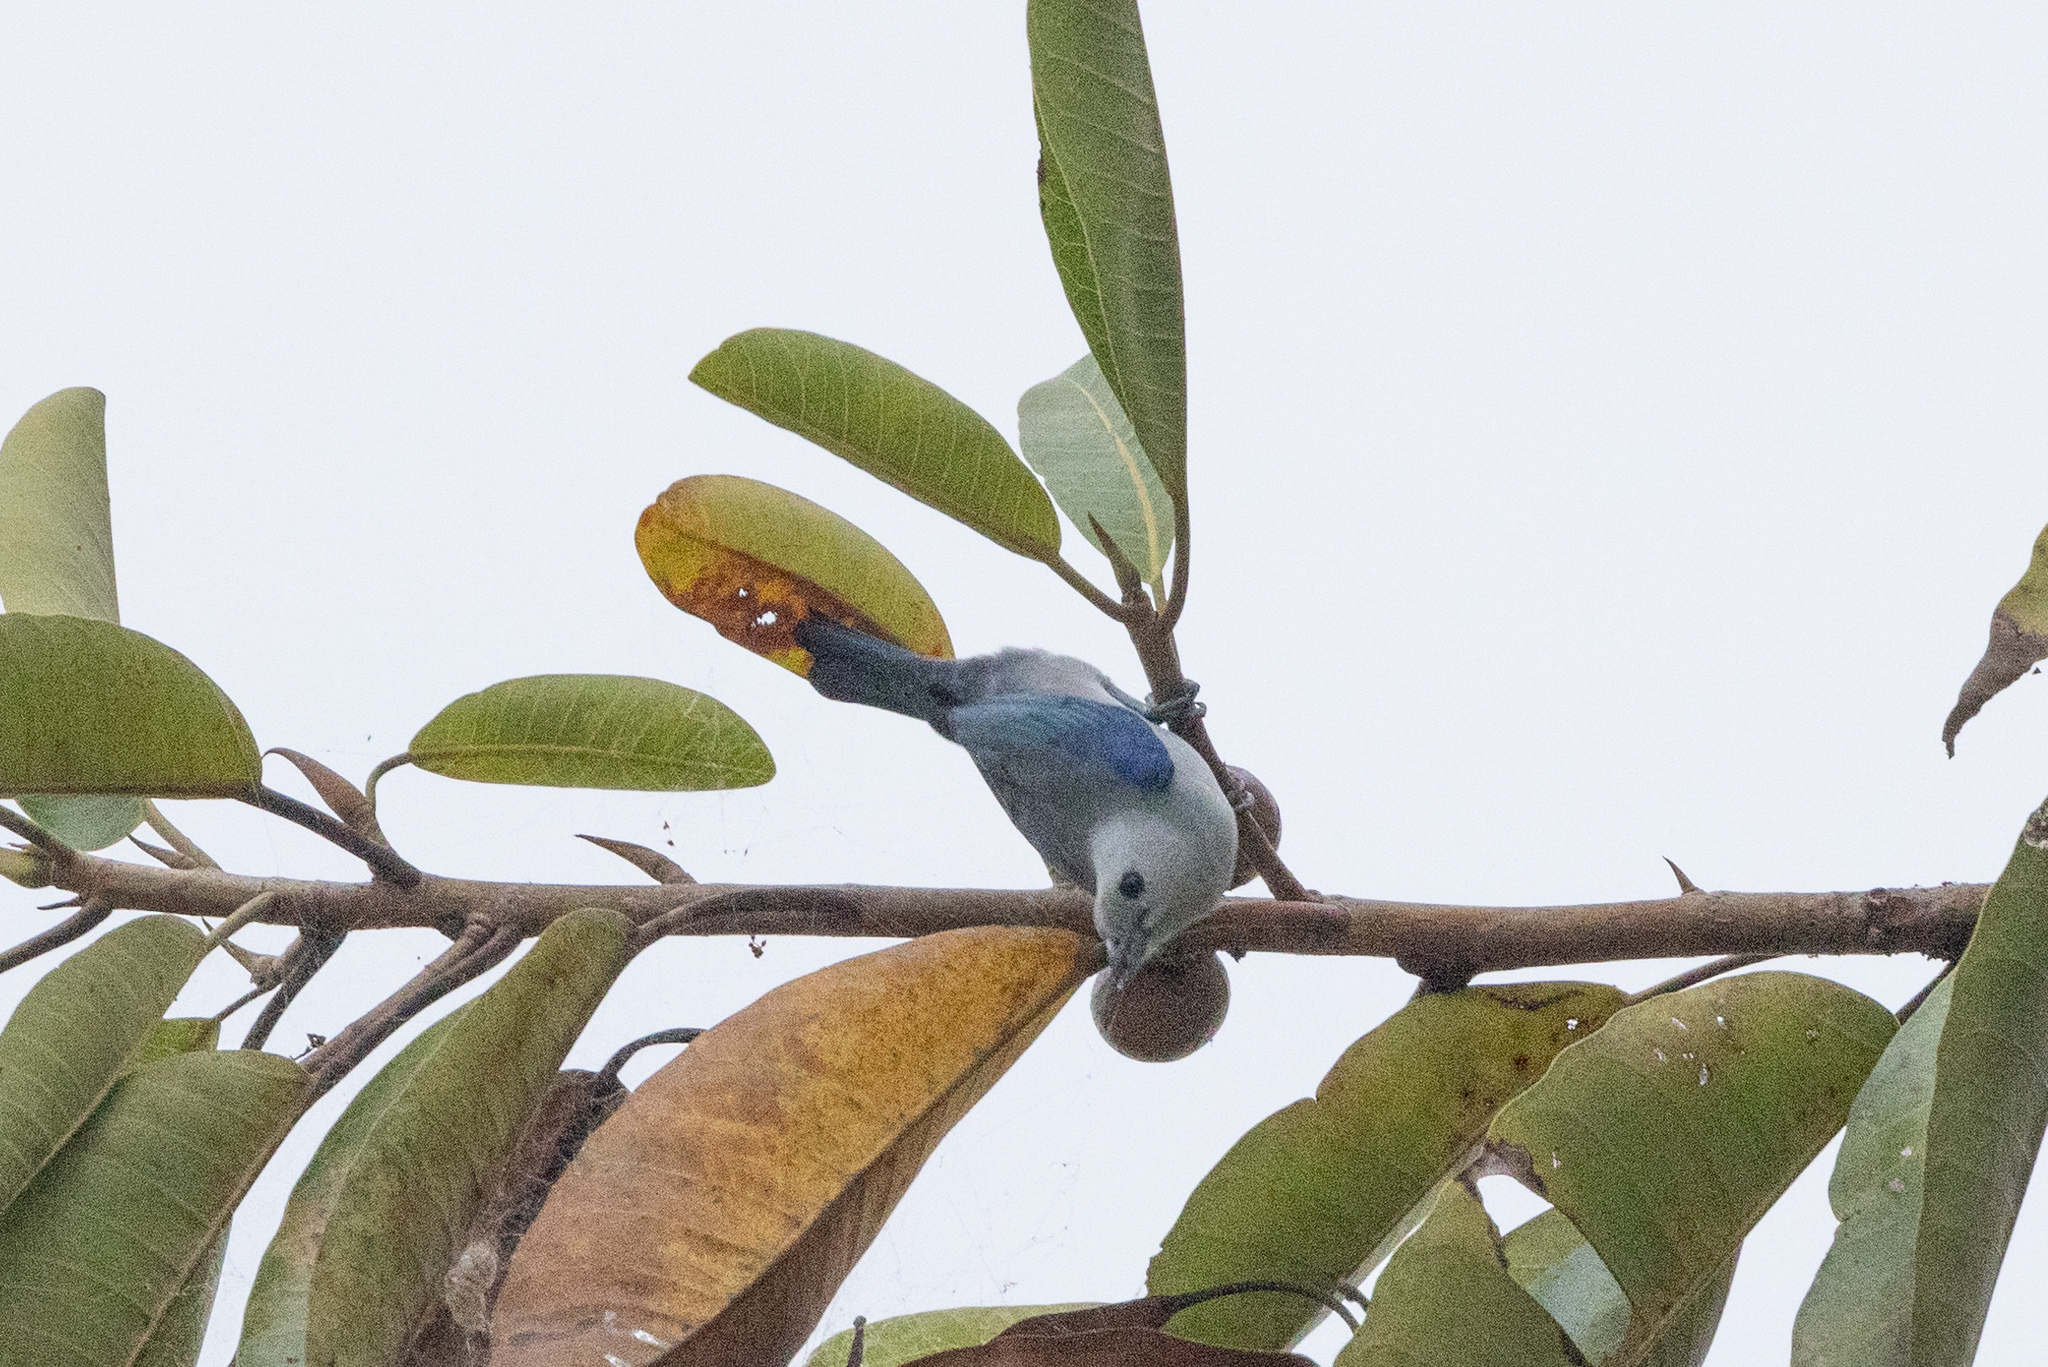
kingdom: Animalia
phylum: Chordata
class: Aves
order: Passeriformes
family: Thraupidae
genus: Thraupis
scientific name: Thraupis episcopus
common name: Blue-grey tanager
